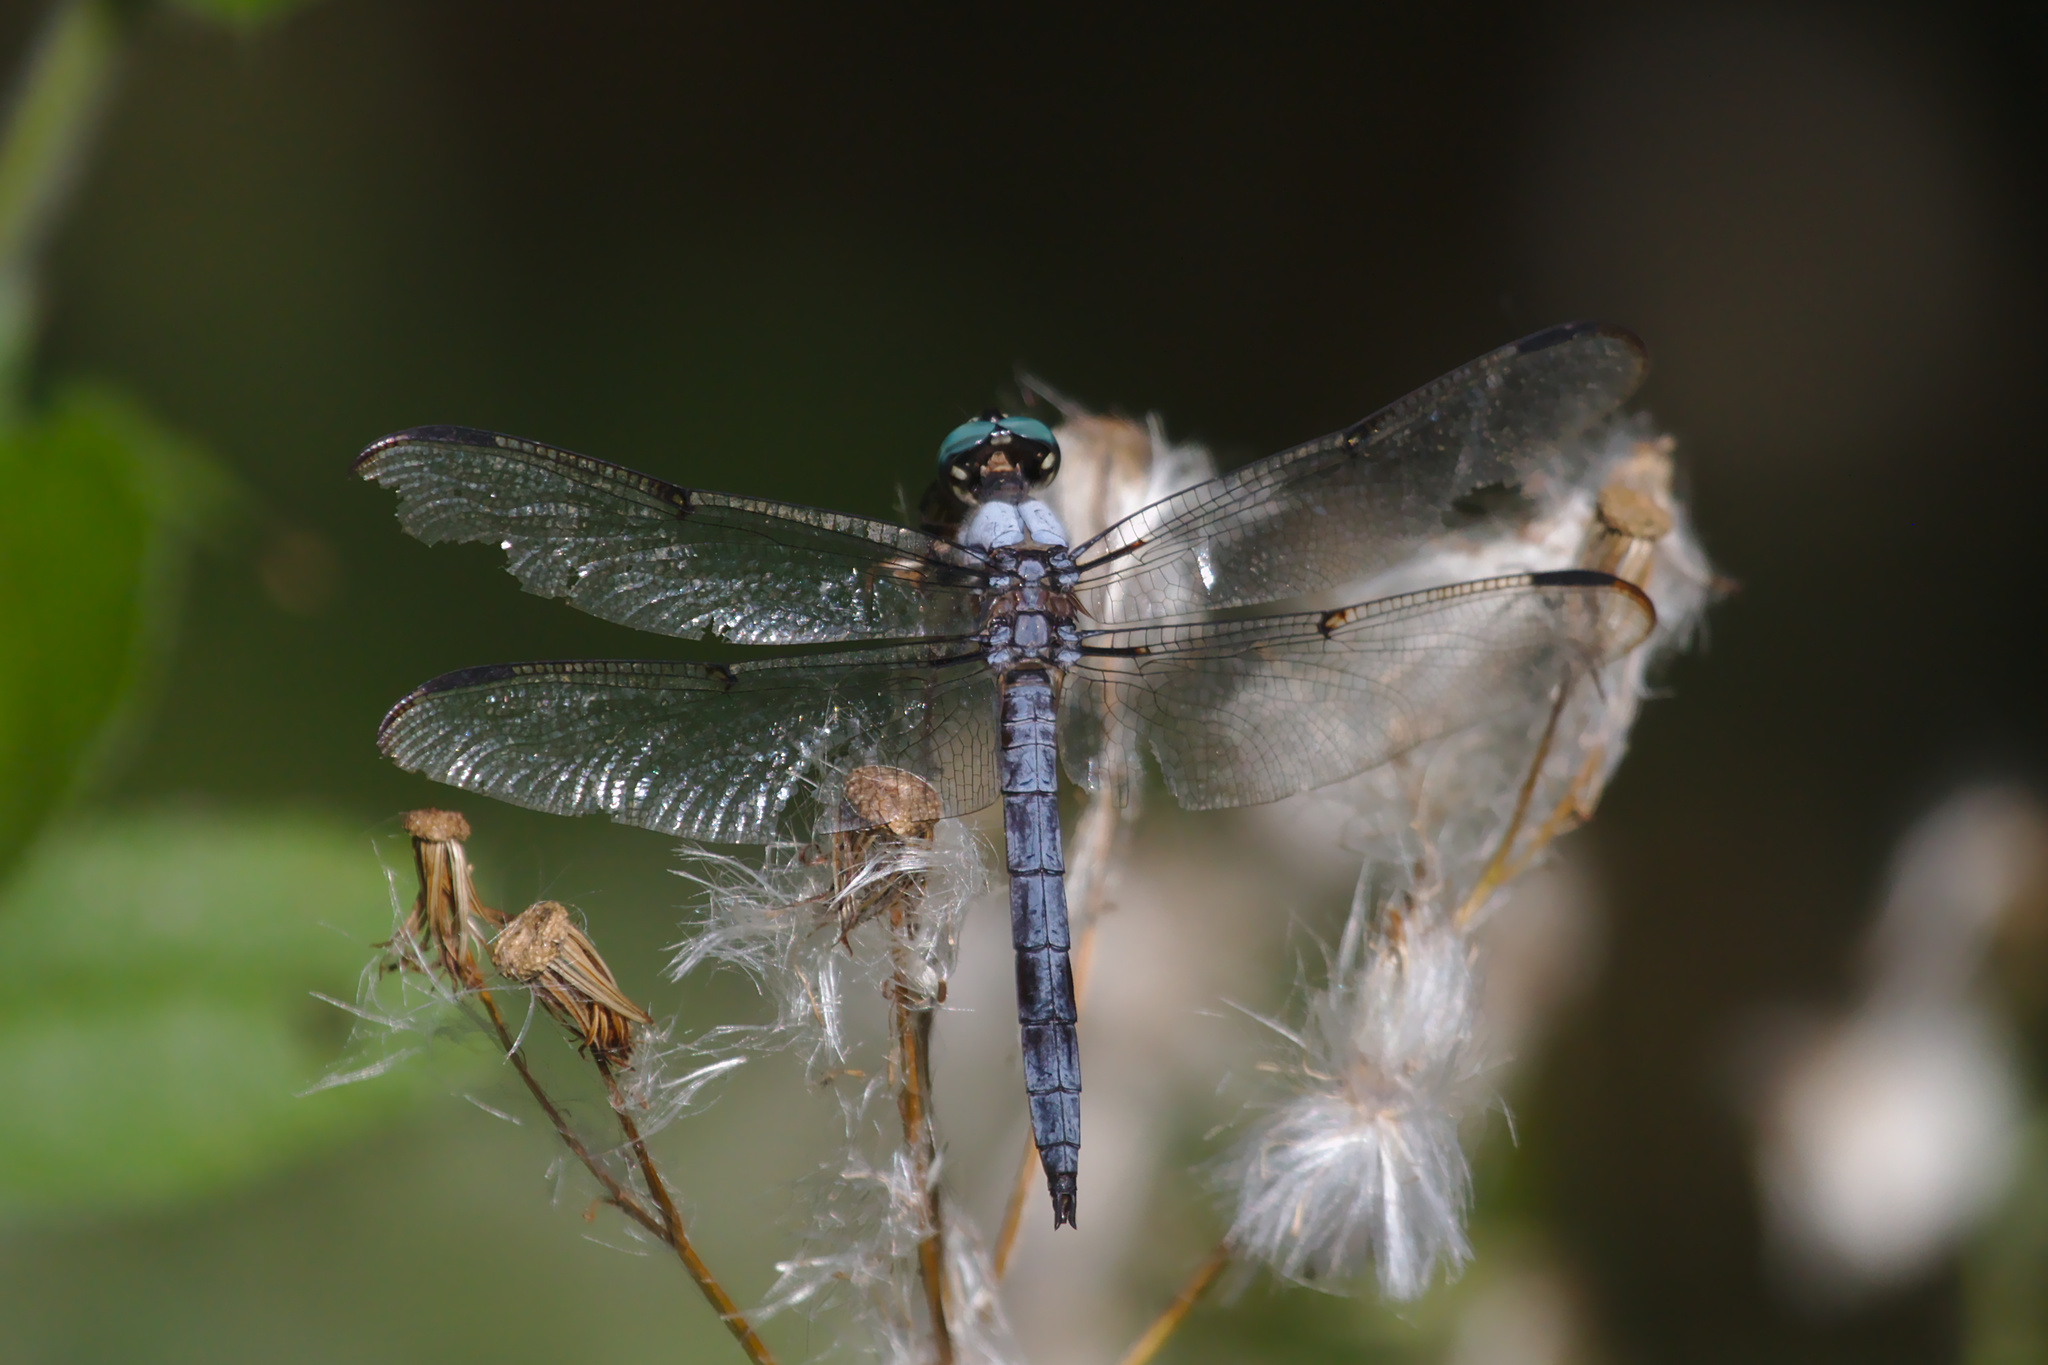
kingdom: Animalia
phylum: Arthropoda
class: Insecta
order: Odonata
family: Libellulidae
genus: Libellula
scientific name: Libellula vibrans
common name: Great blue skimmer
